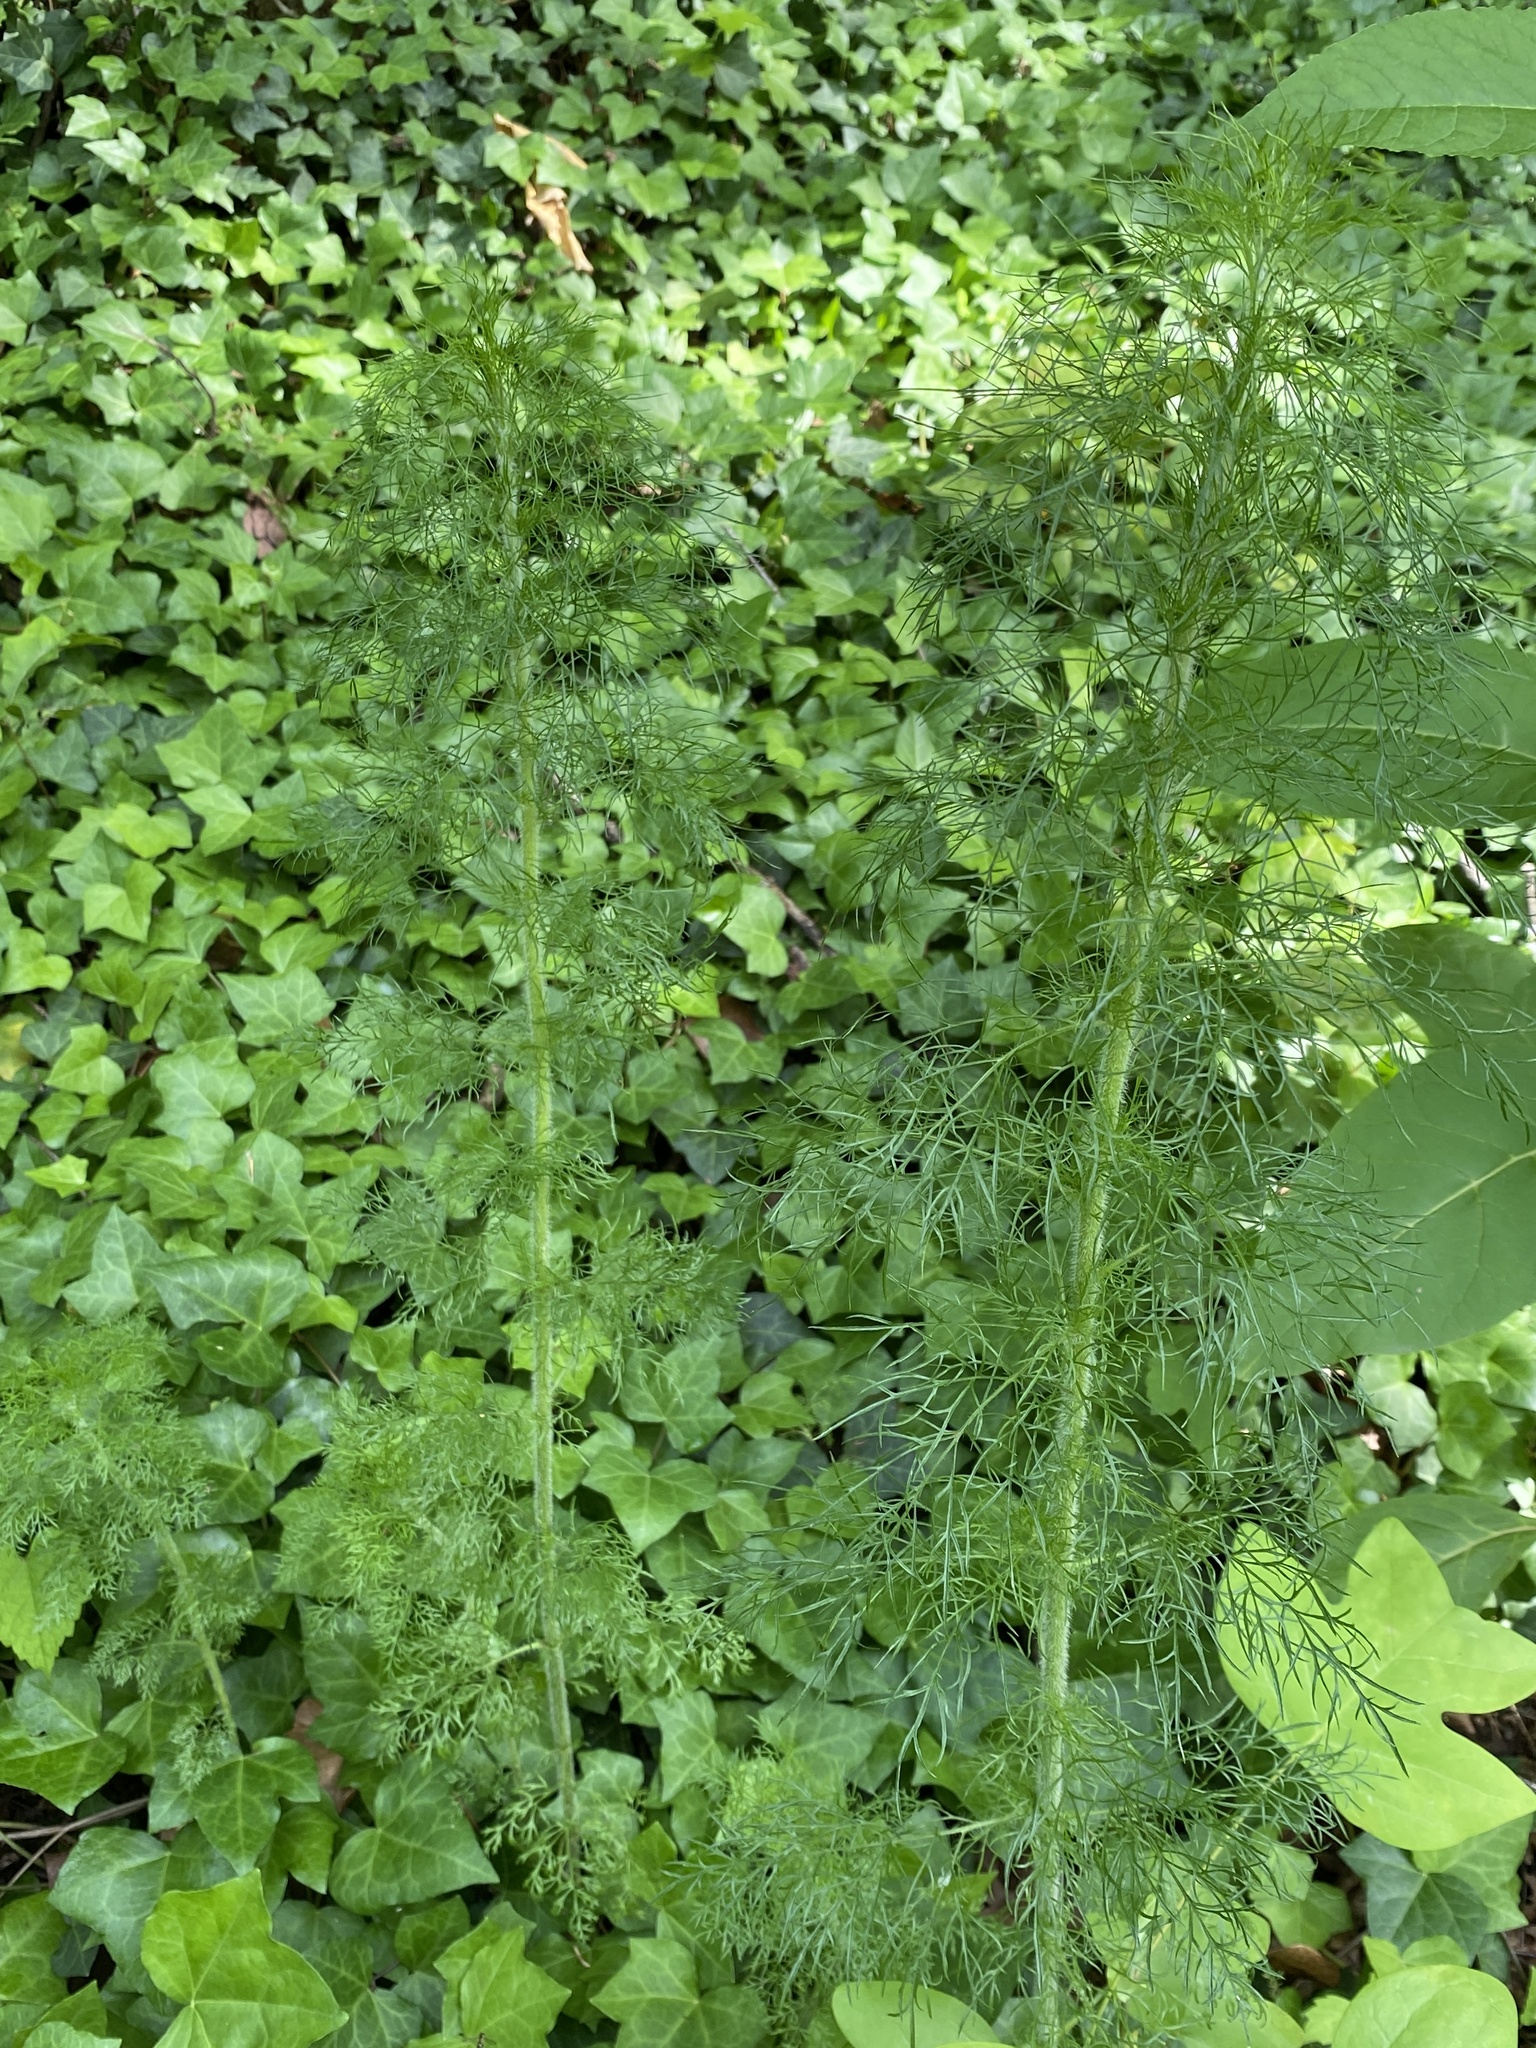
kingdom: Plantae
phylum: Tracheophyta
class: Magnoliopsida
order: Asterales
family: Asteraceae
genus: Eupatorium
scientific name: Eupatorium capillifolium
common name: Dog-fennel
